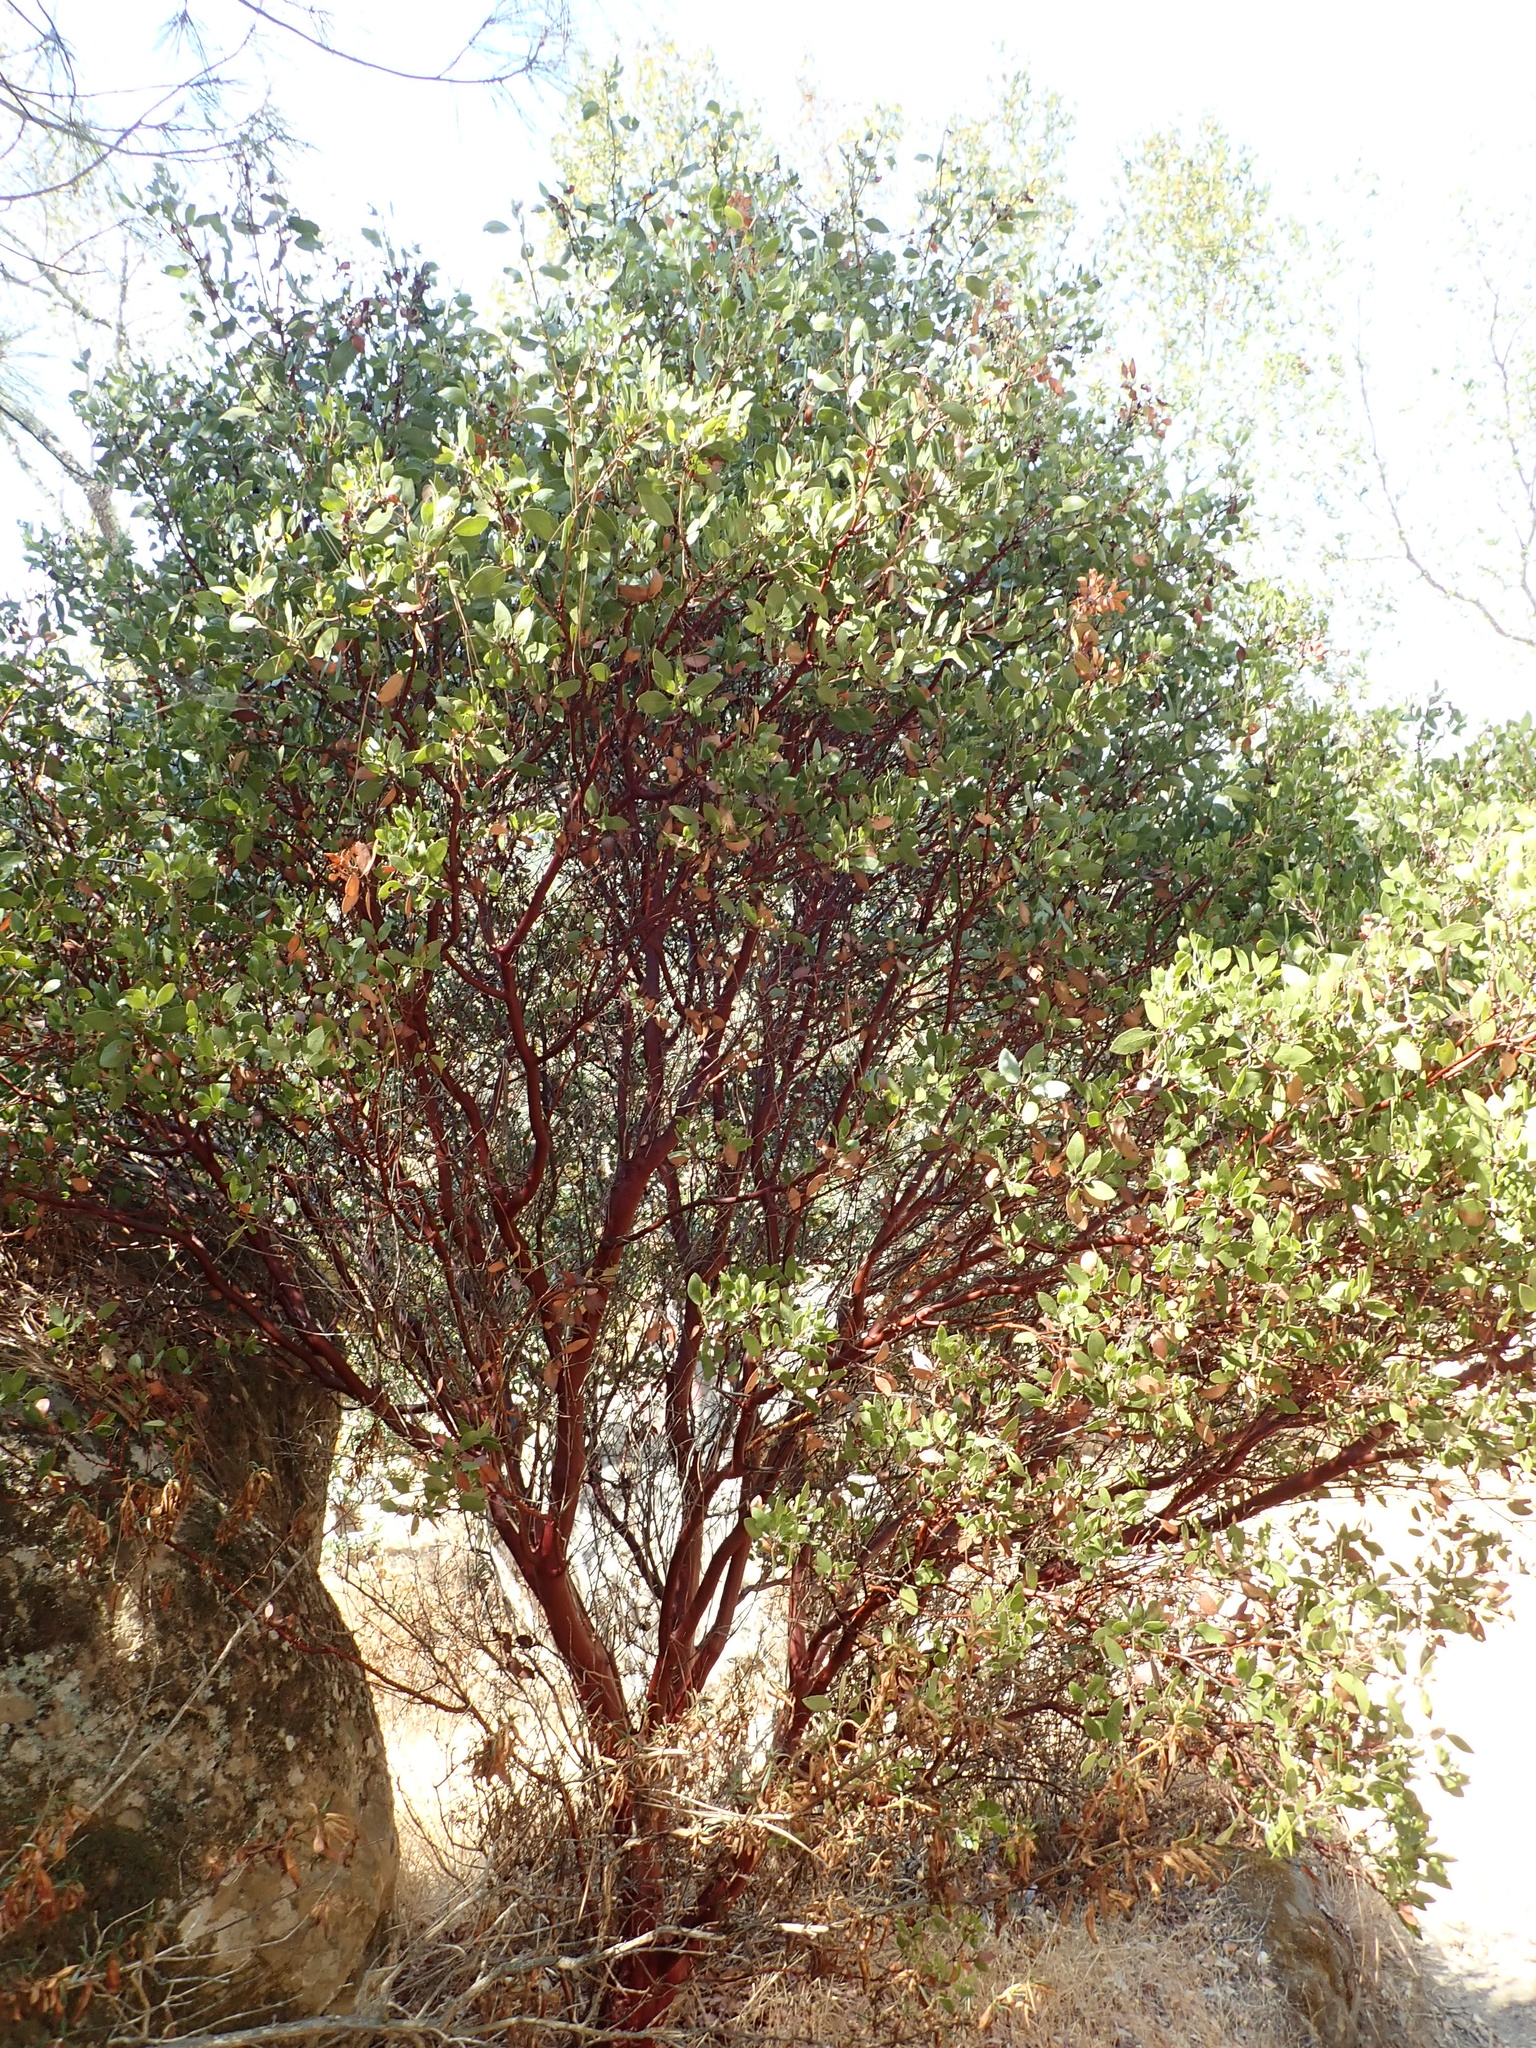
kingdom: Plantae
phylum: Tracheophyta
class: Magnoliopsida
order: Ericales
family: Ericaceae
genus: Arctostaphylos
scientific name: Arctostaphylos manzanita
